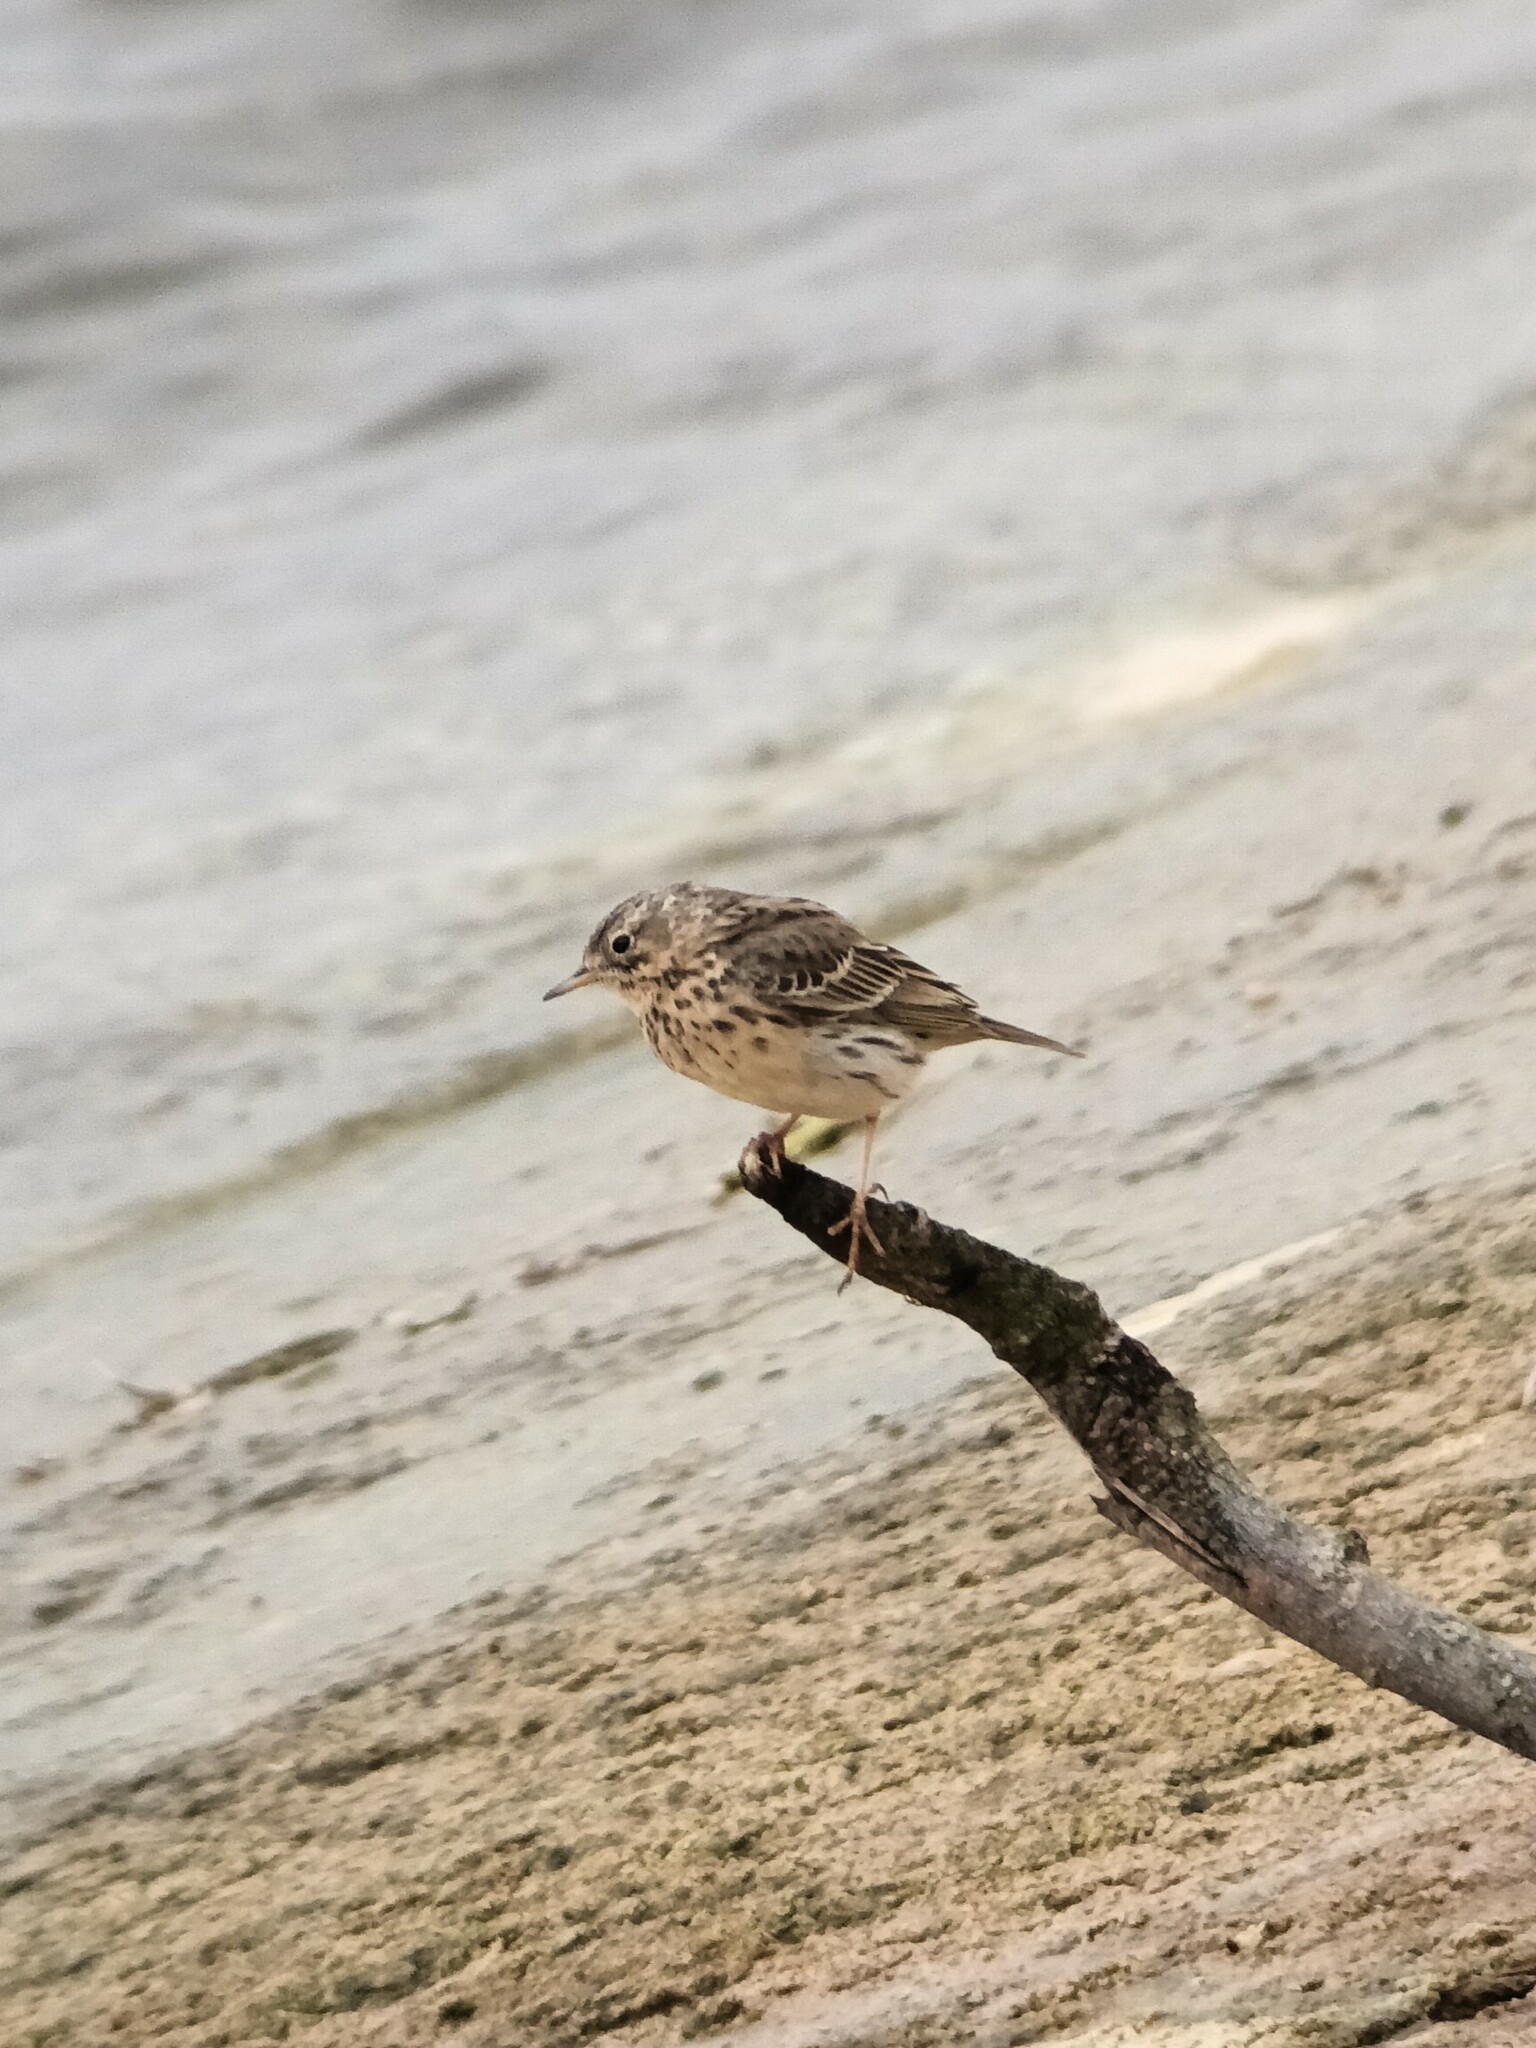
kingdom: Animalia
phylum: Chordata
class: Aves
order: Passeriformes
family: Motacillidae
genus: Anthus
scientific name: Anthus pratensis
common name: Meadow pipit
